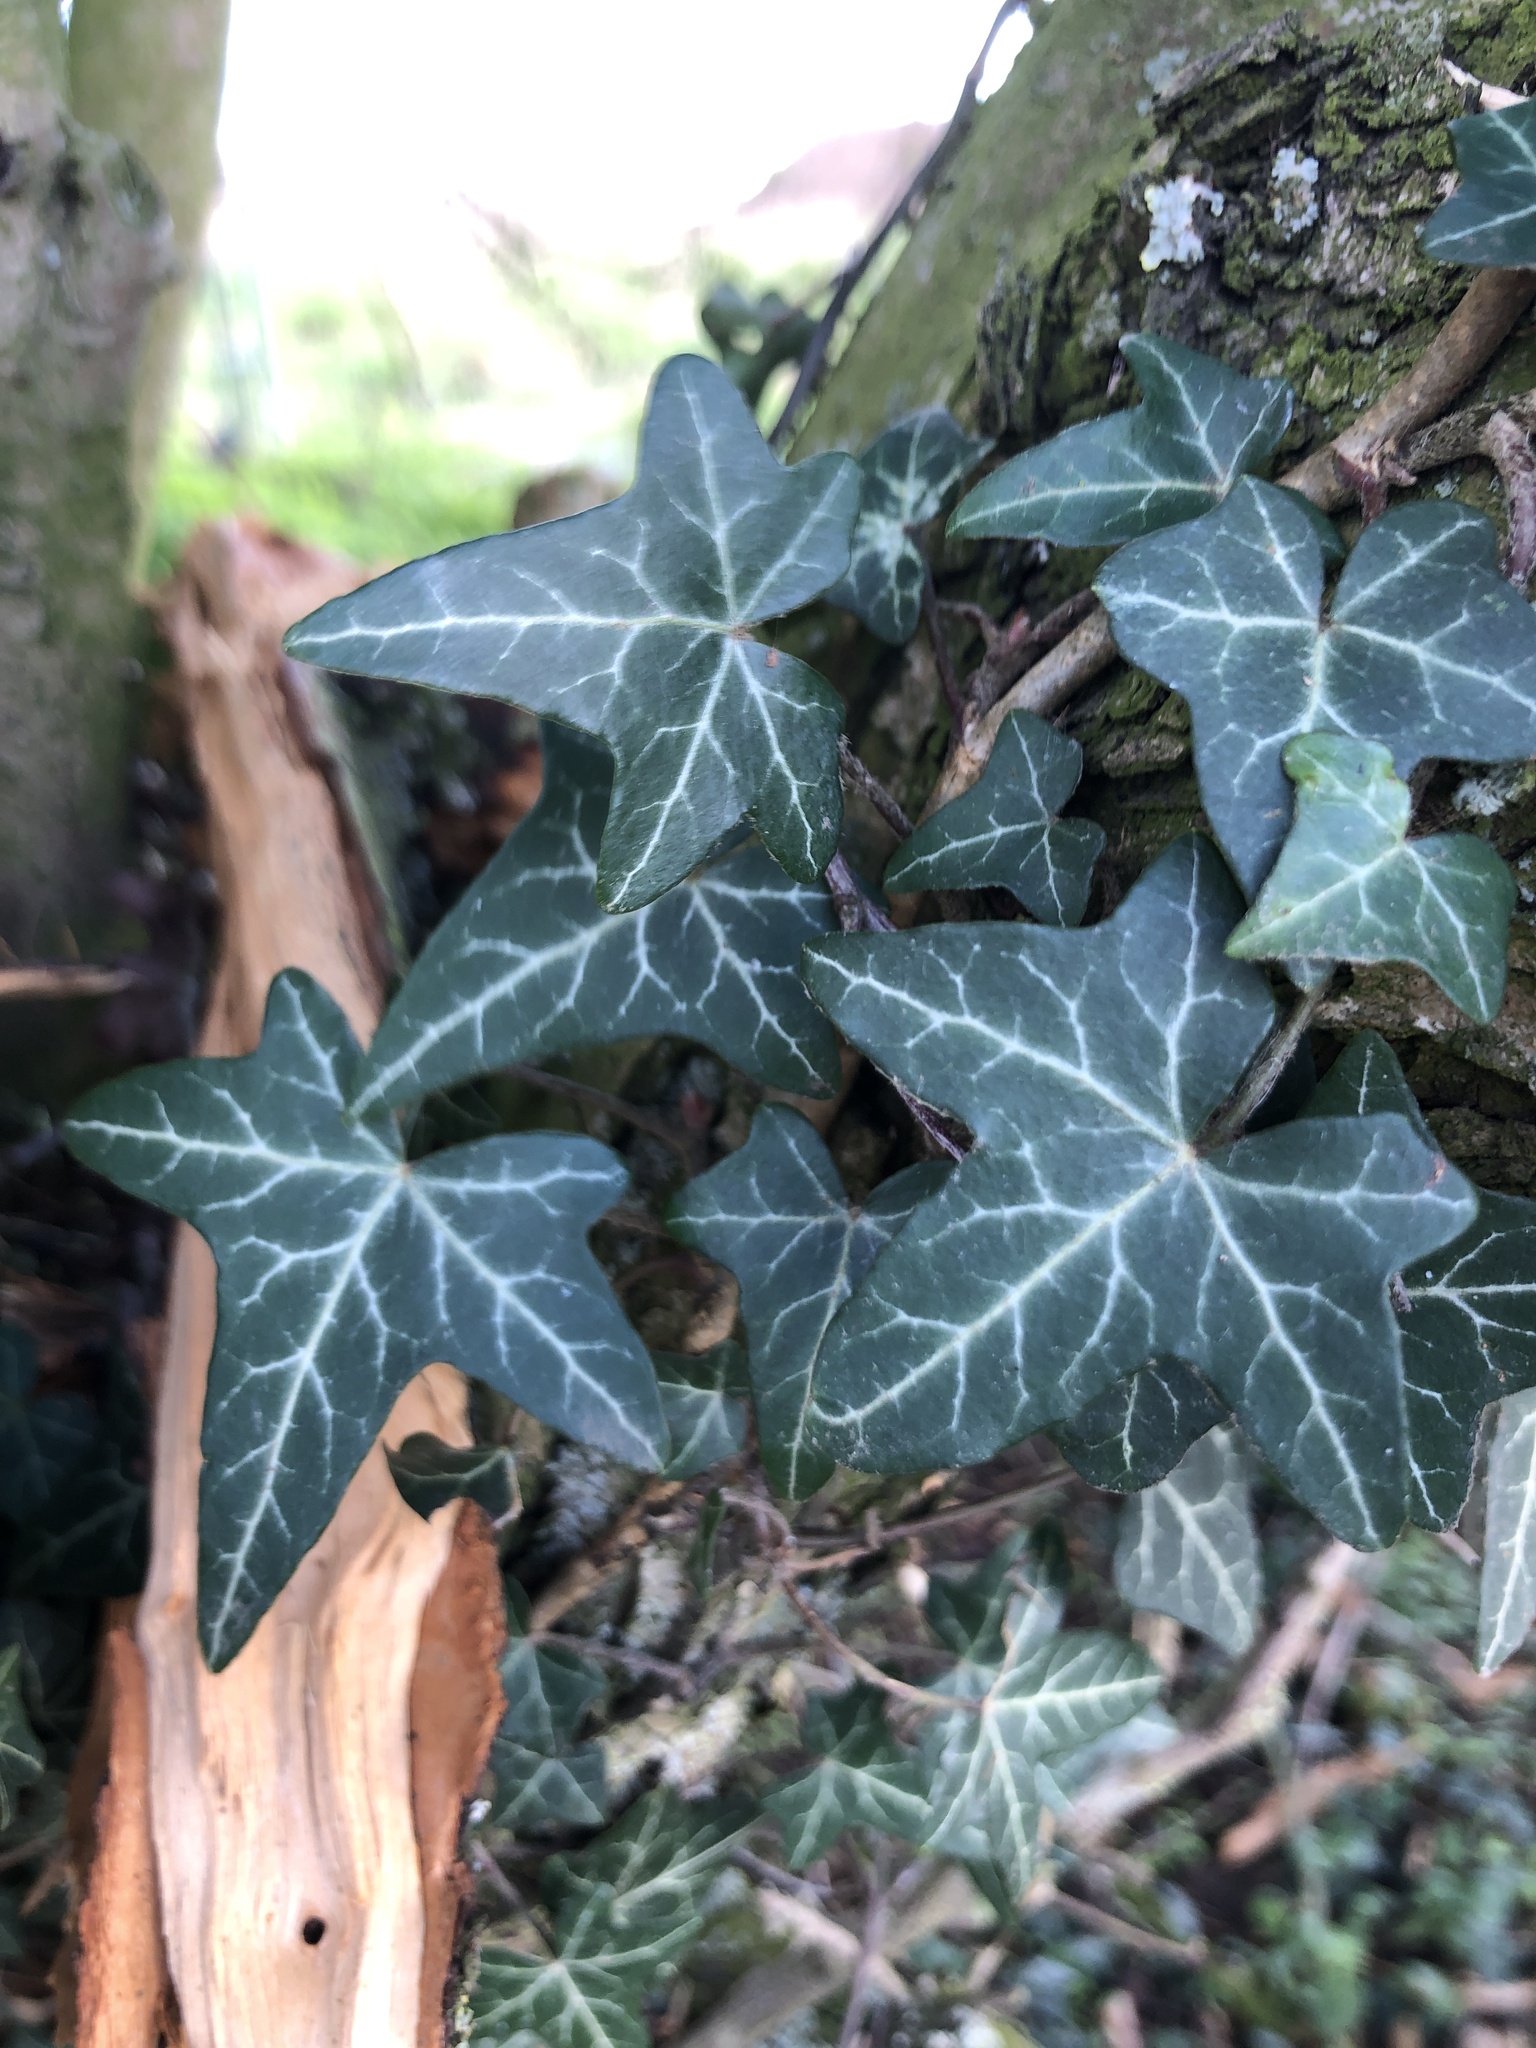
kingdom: Plantae
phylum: Tracheophyta
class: Magnoliopsida
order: Apiales
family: Araliaceae
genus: Hedera
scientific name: Hedera helix
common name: Ivy
